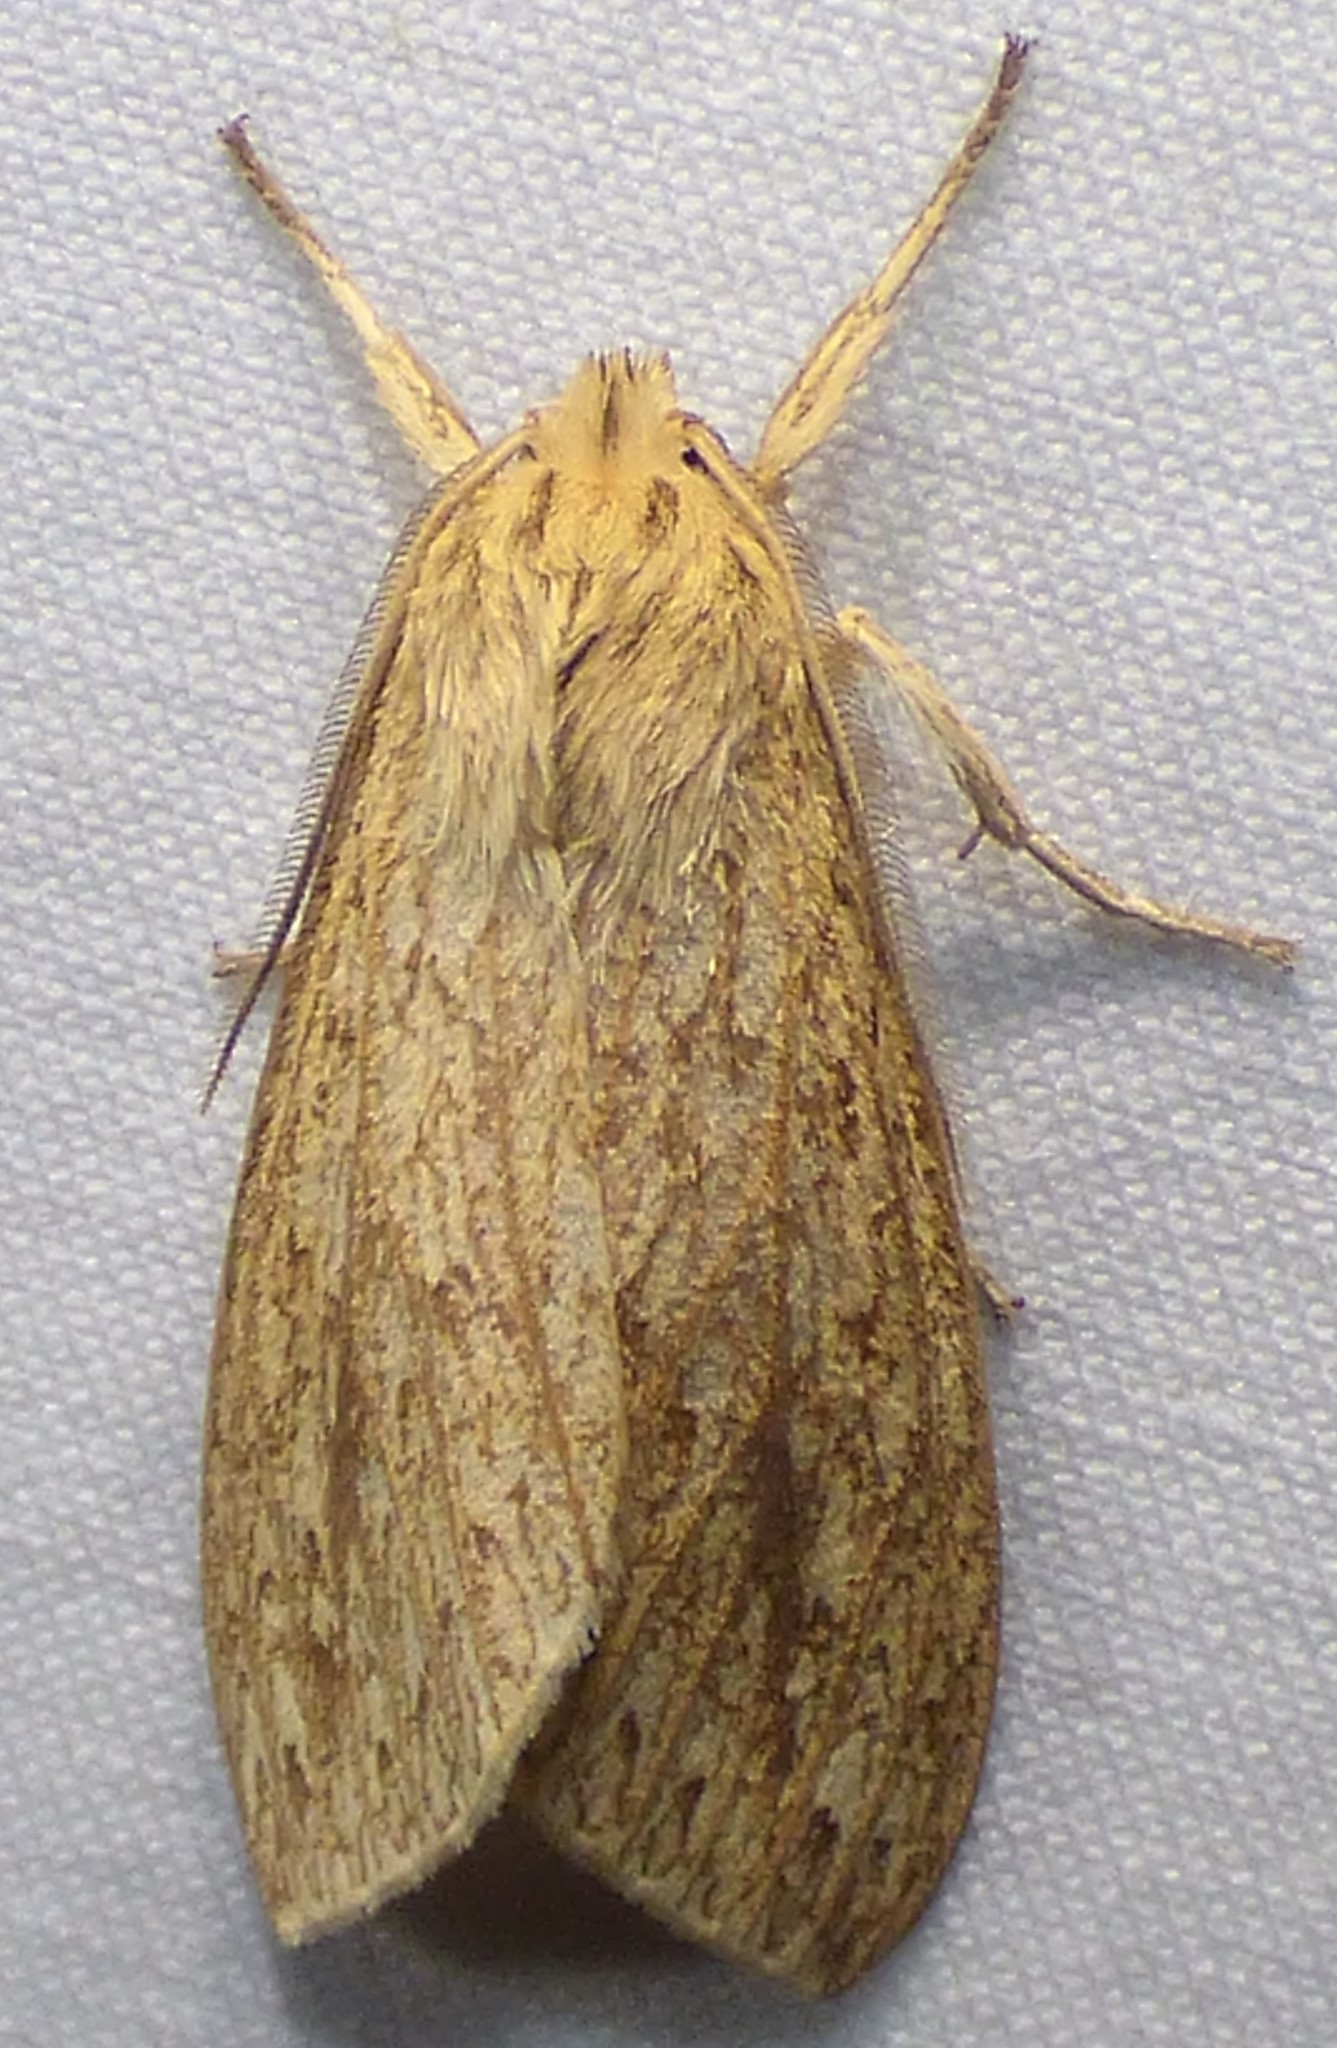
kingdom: Animalia
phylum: Arthropoda
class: Insecta
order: Lepidoptera
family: Erebidae
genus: Leucanopsis
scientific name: Leucanopsis longa
